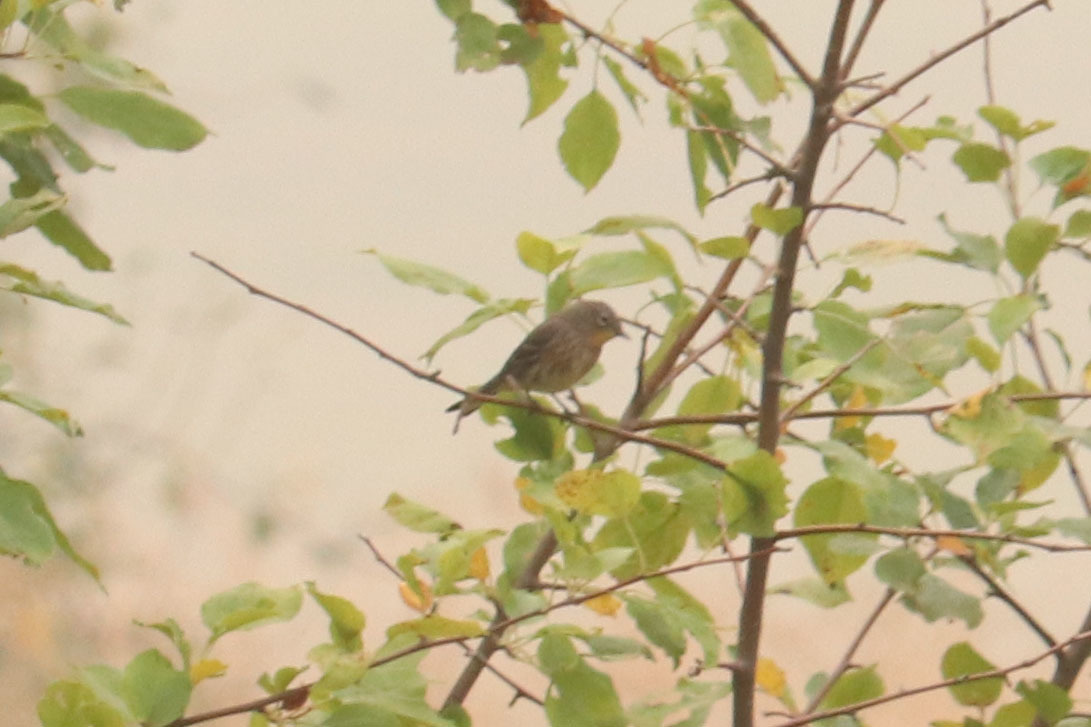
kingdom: Animalia
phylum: Chordata
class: Aves
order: Passeriformes
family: Parulidae
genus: Setophaga
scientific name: Setophaga coronata
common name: Myrtle warbler
